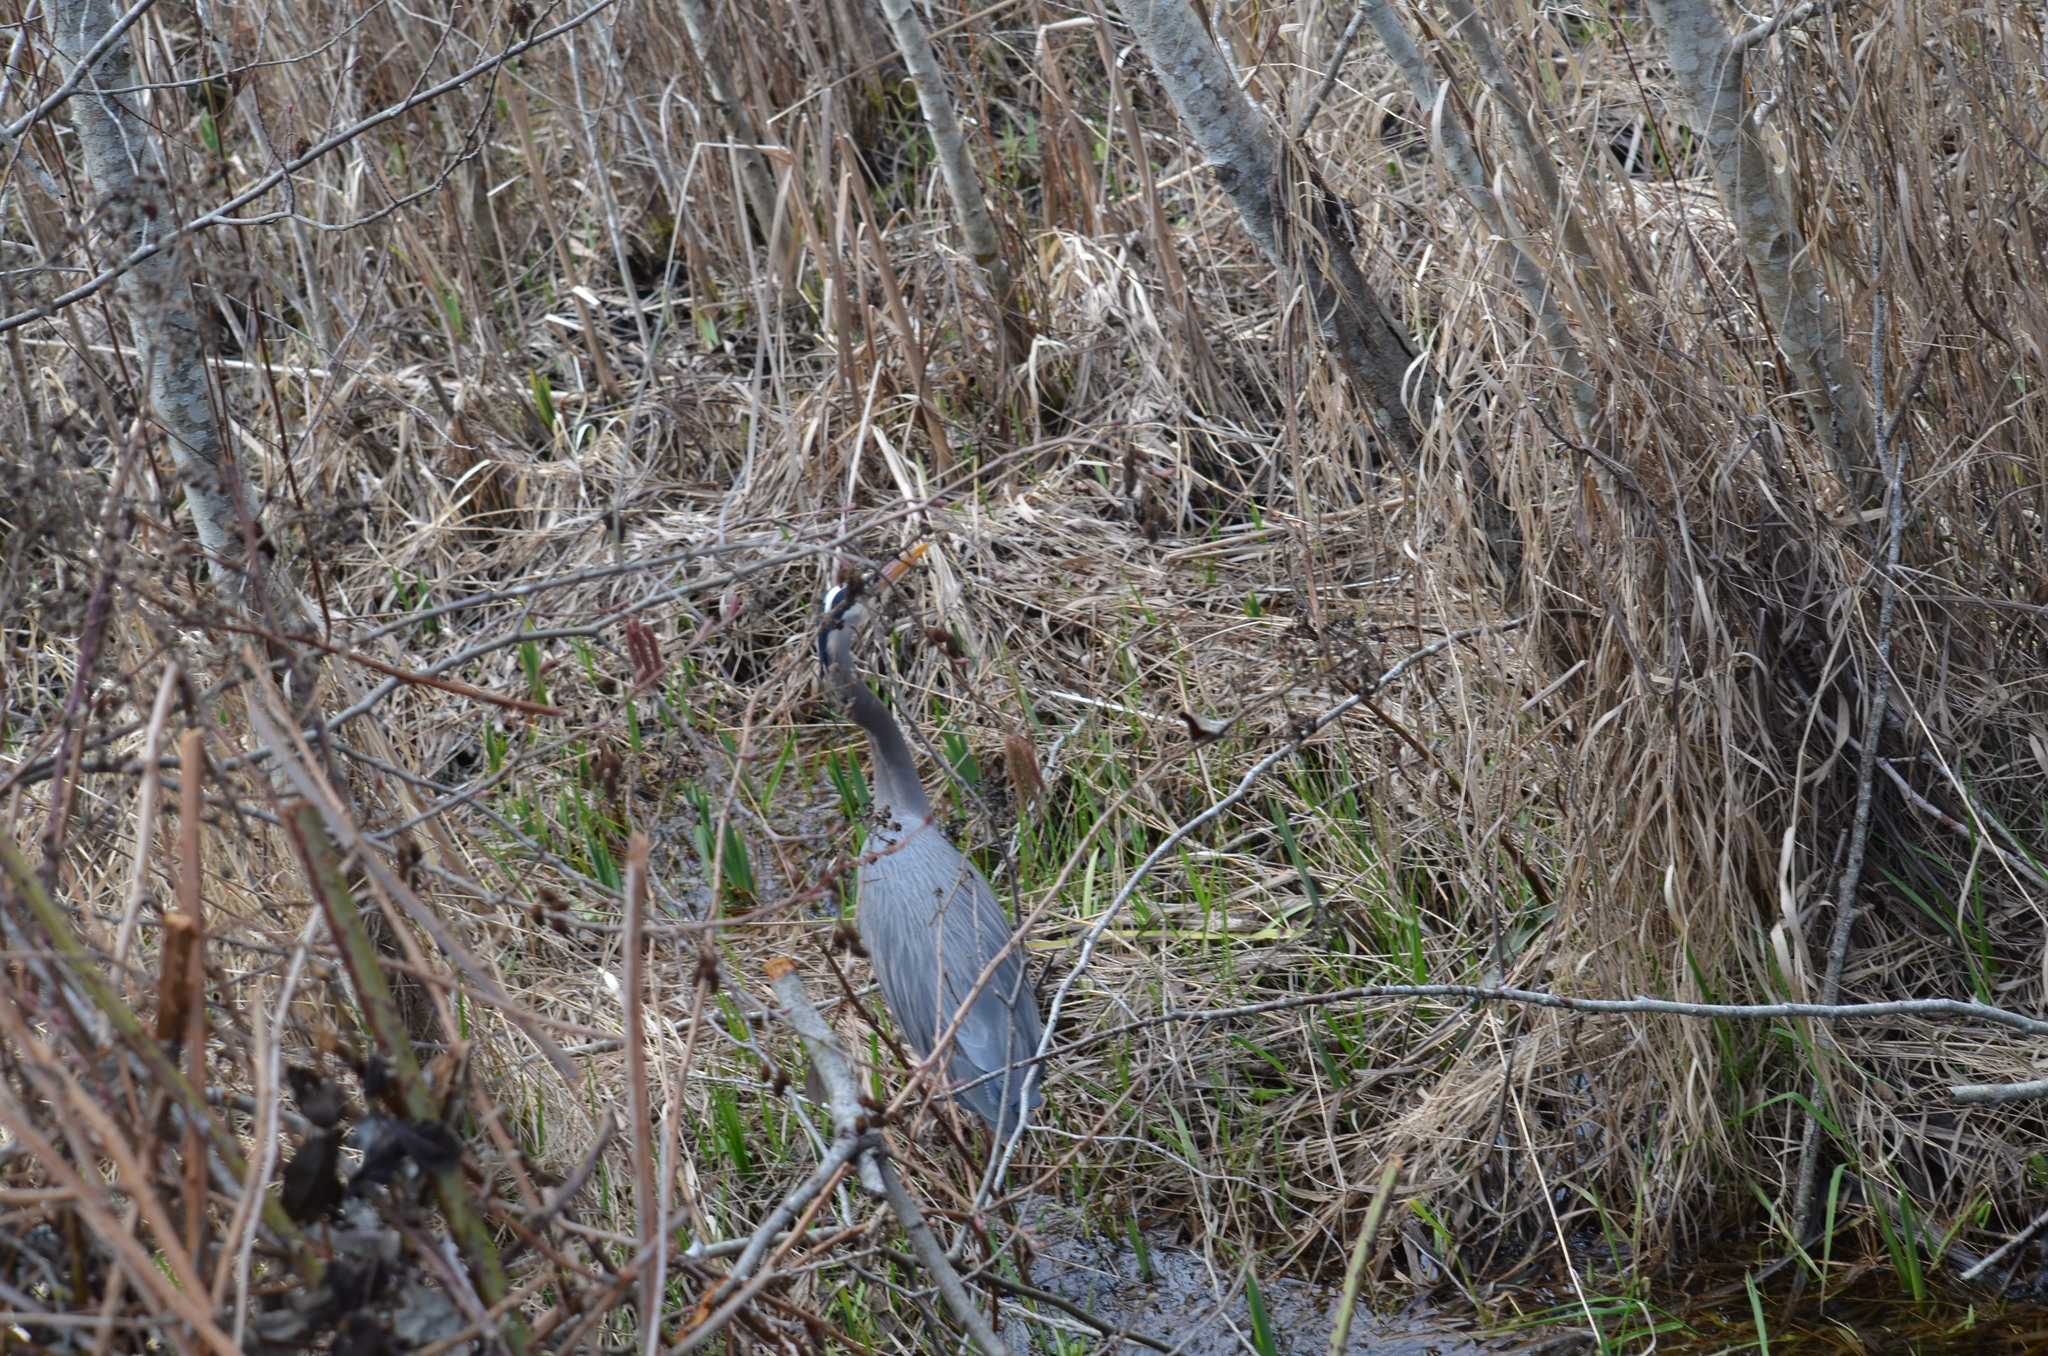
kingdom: Animalia
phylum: Chordata
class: Aves
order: Pelecaniformes
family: Ardeidae
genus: Ardea
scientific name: Ardea herodias
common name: Great blue heron
